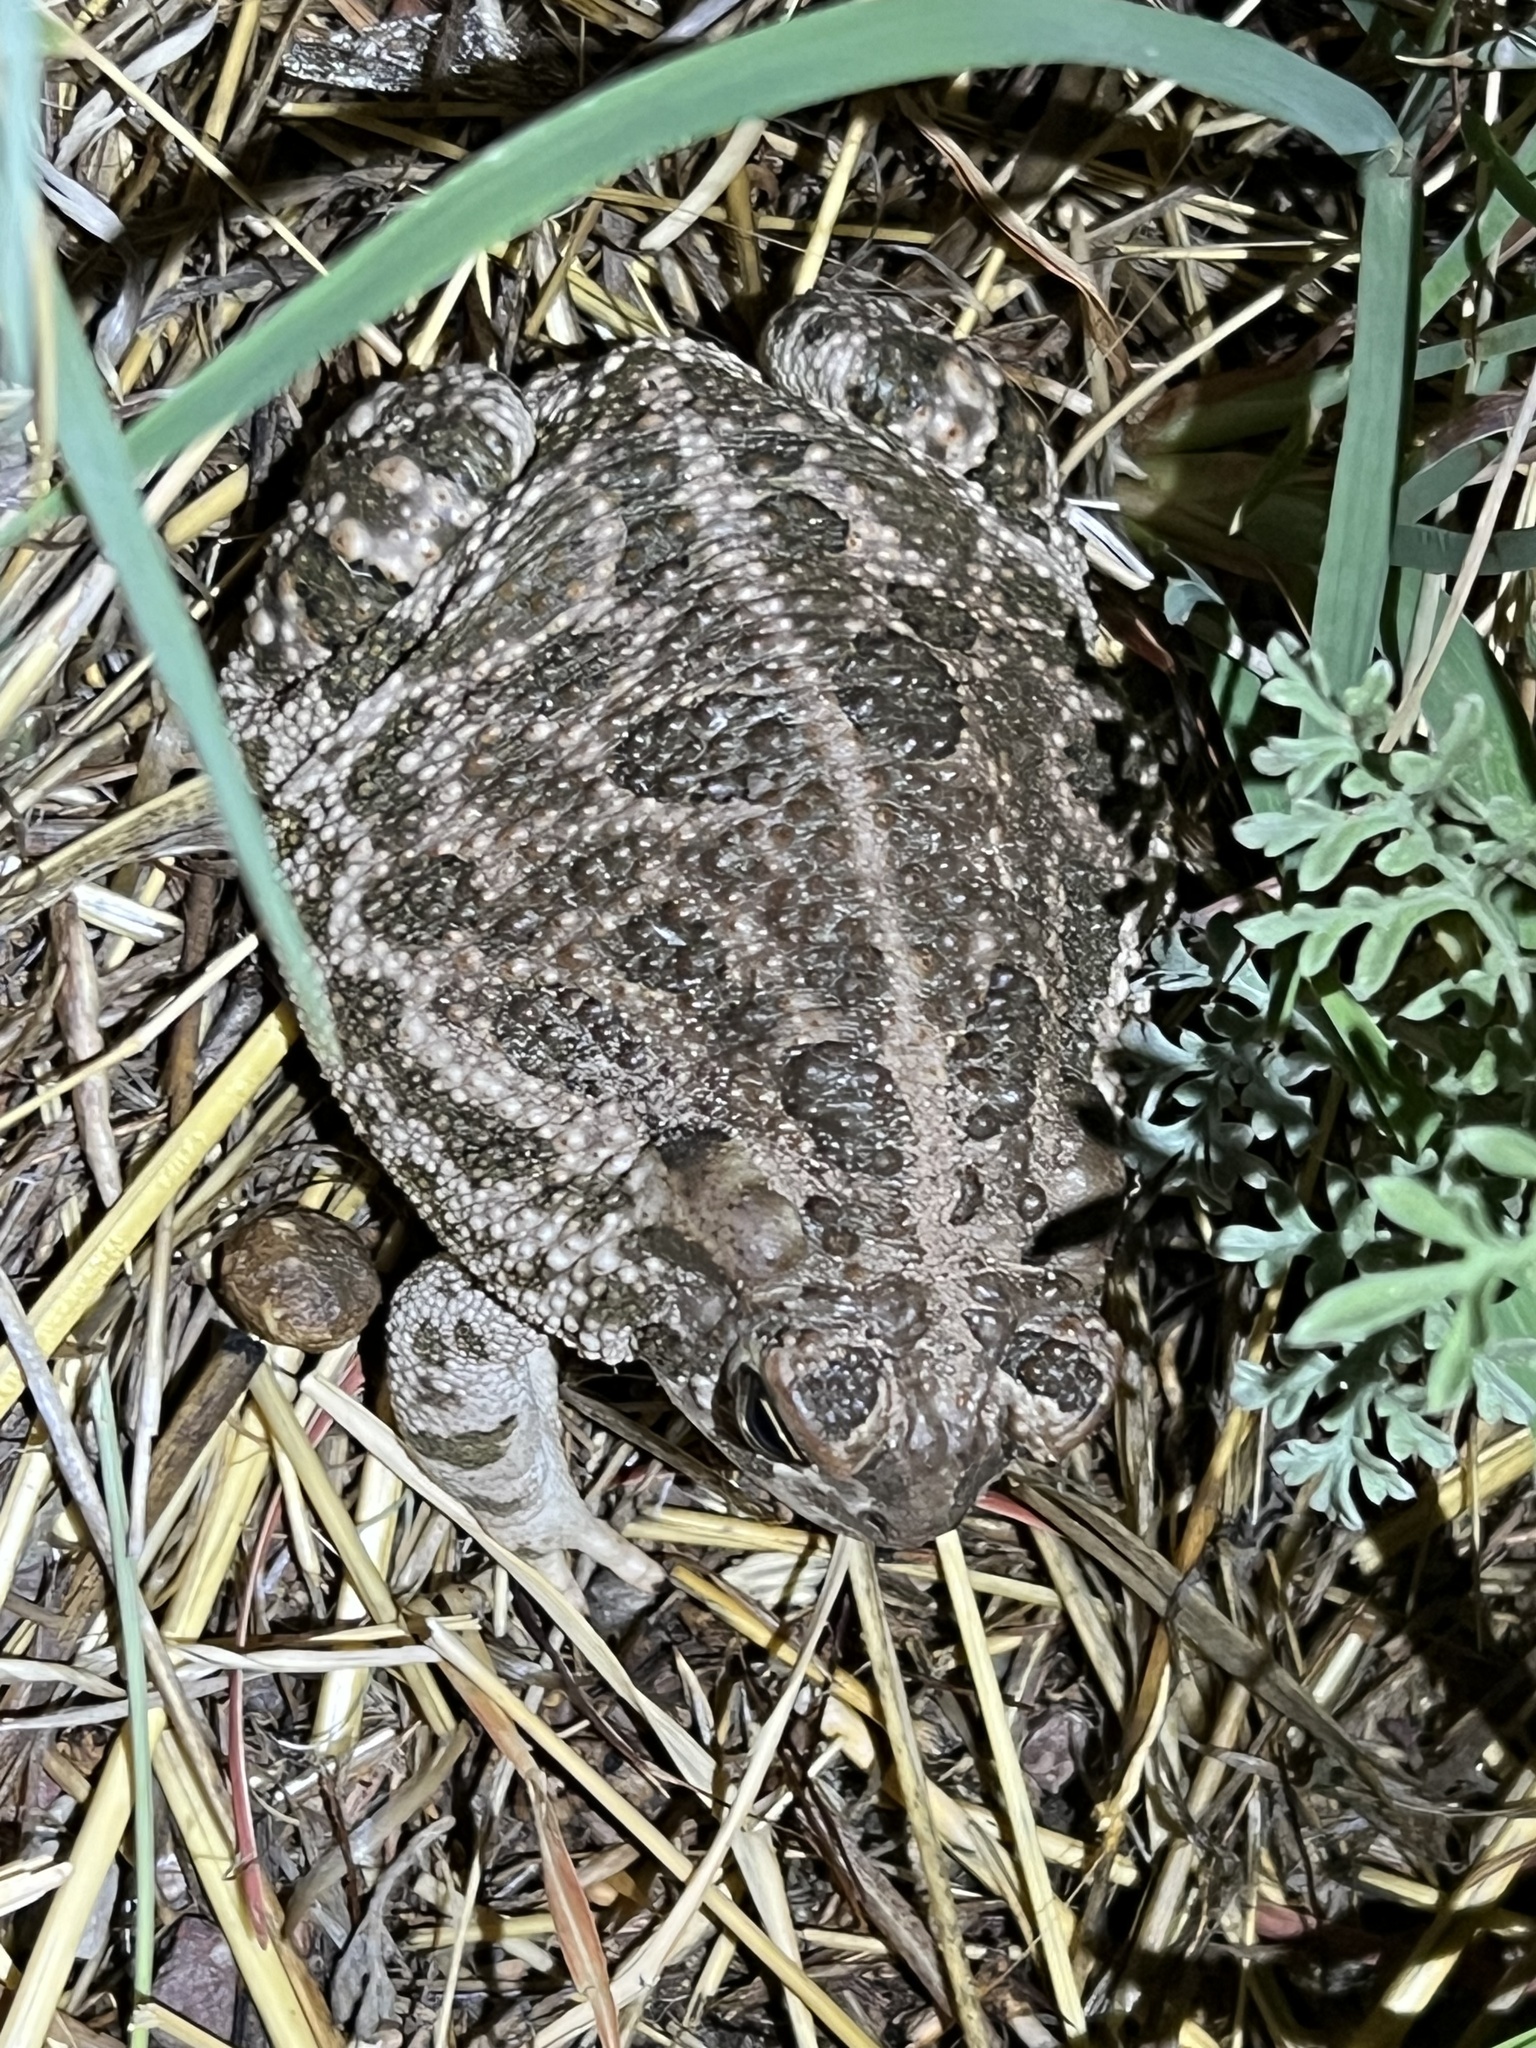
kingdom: Animalia
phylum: Chordata
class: Amphibia
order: Anura
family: Bufonidae
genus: Anaxyrus
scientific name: Anaxyrus cognatus
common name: Great plains toad
